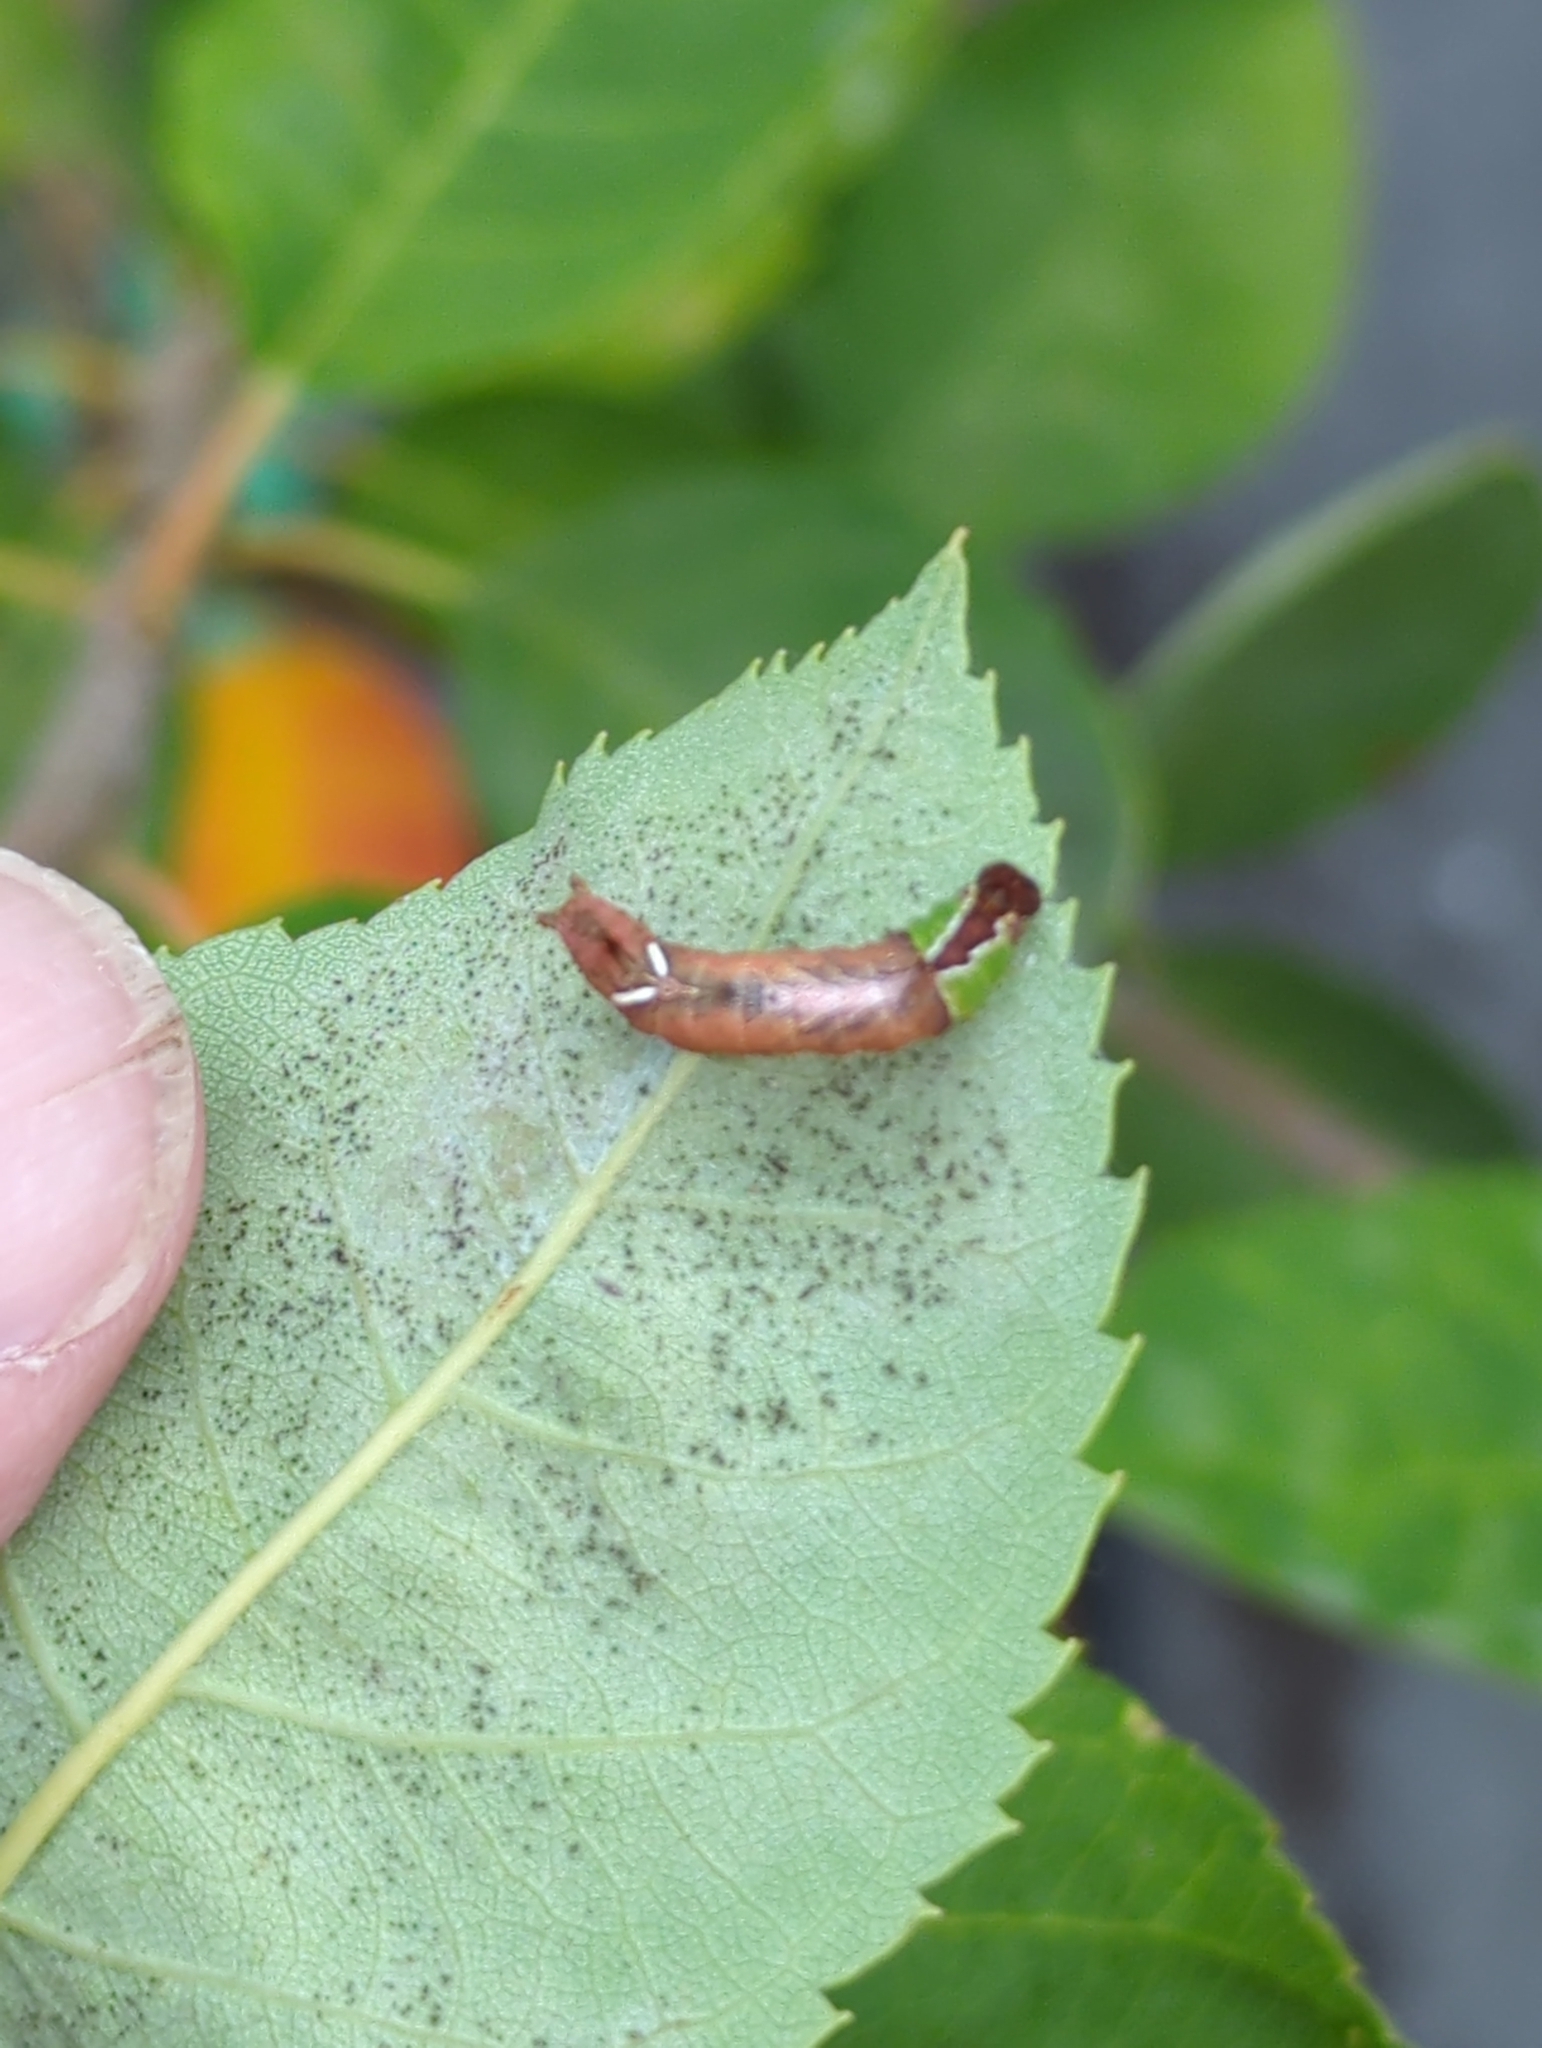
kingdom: Animalia
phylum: Arthropoda
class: Insecta
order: Lepidoptera
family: Notodontidae
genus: Schizura
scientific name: Schizura
